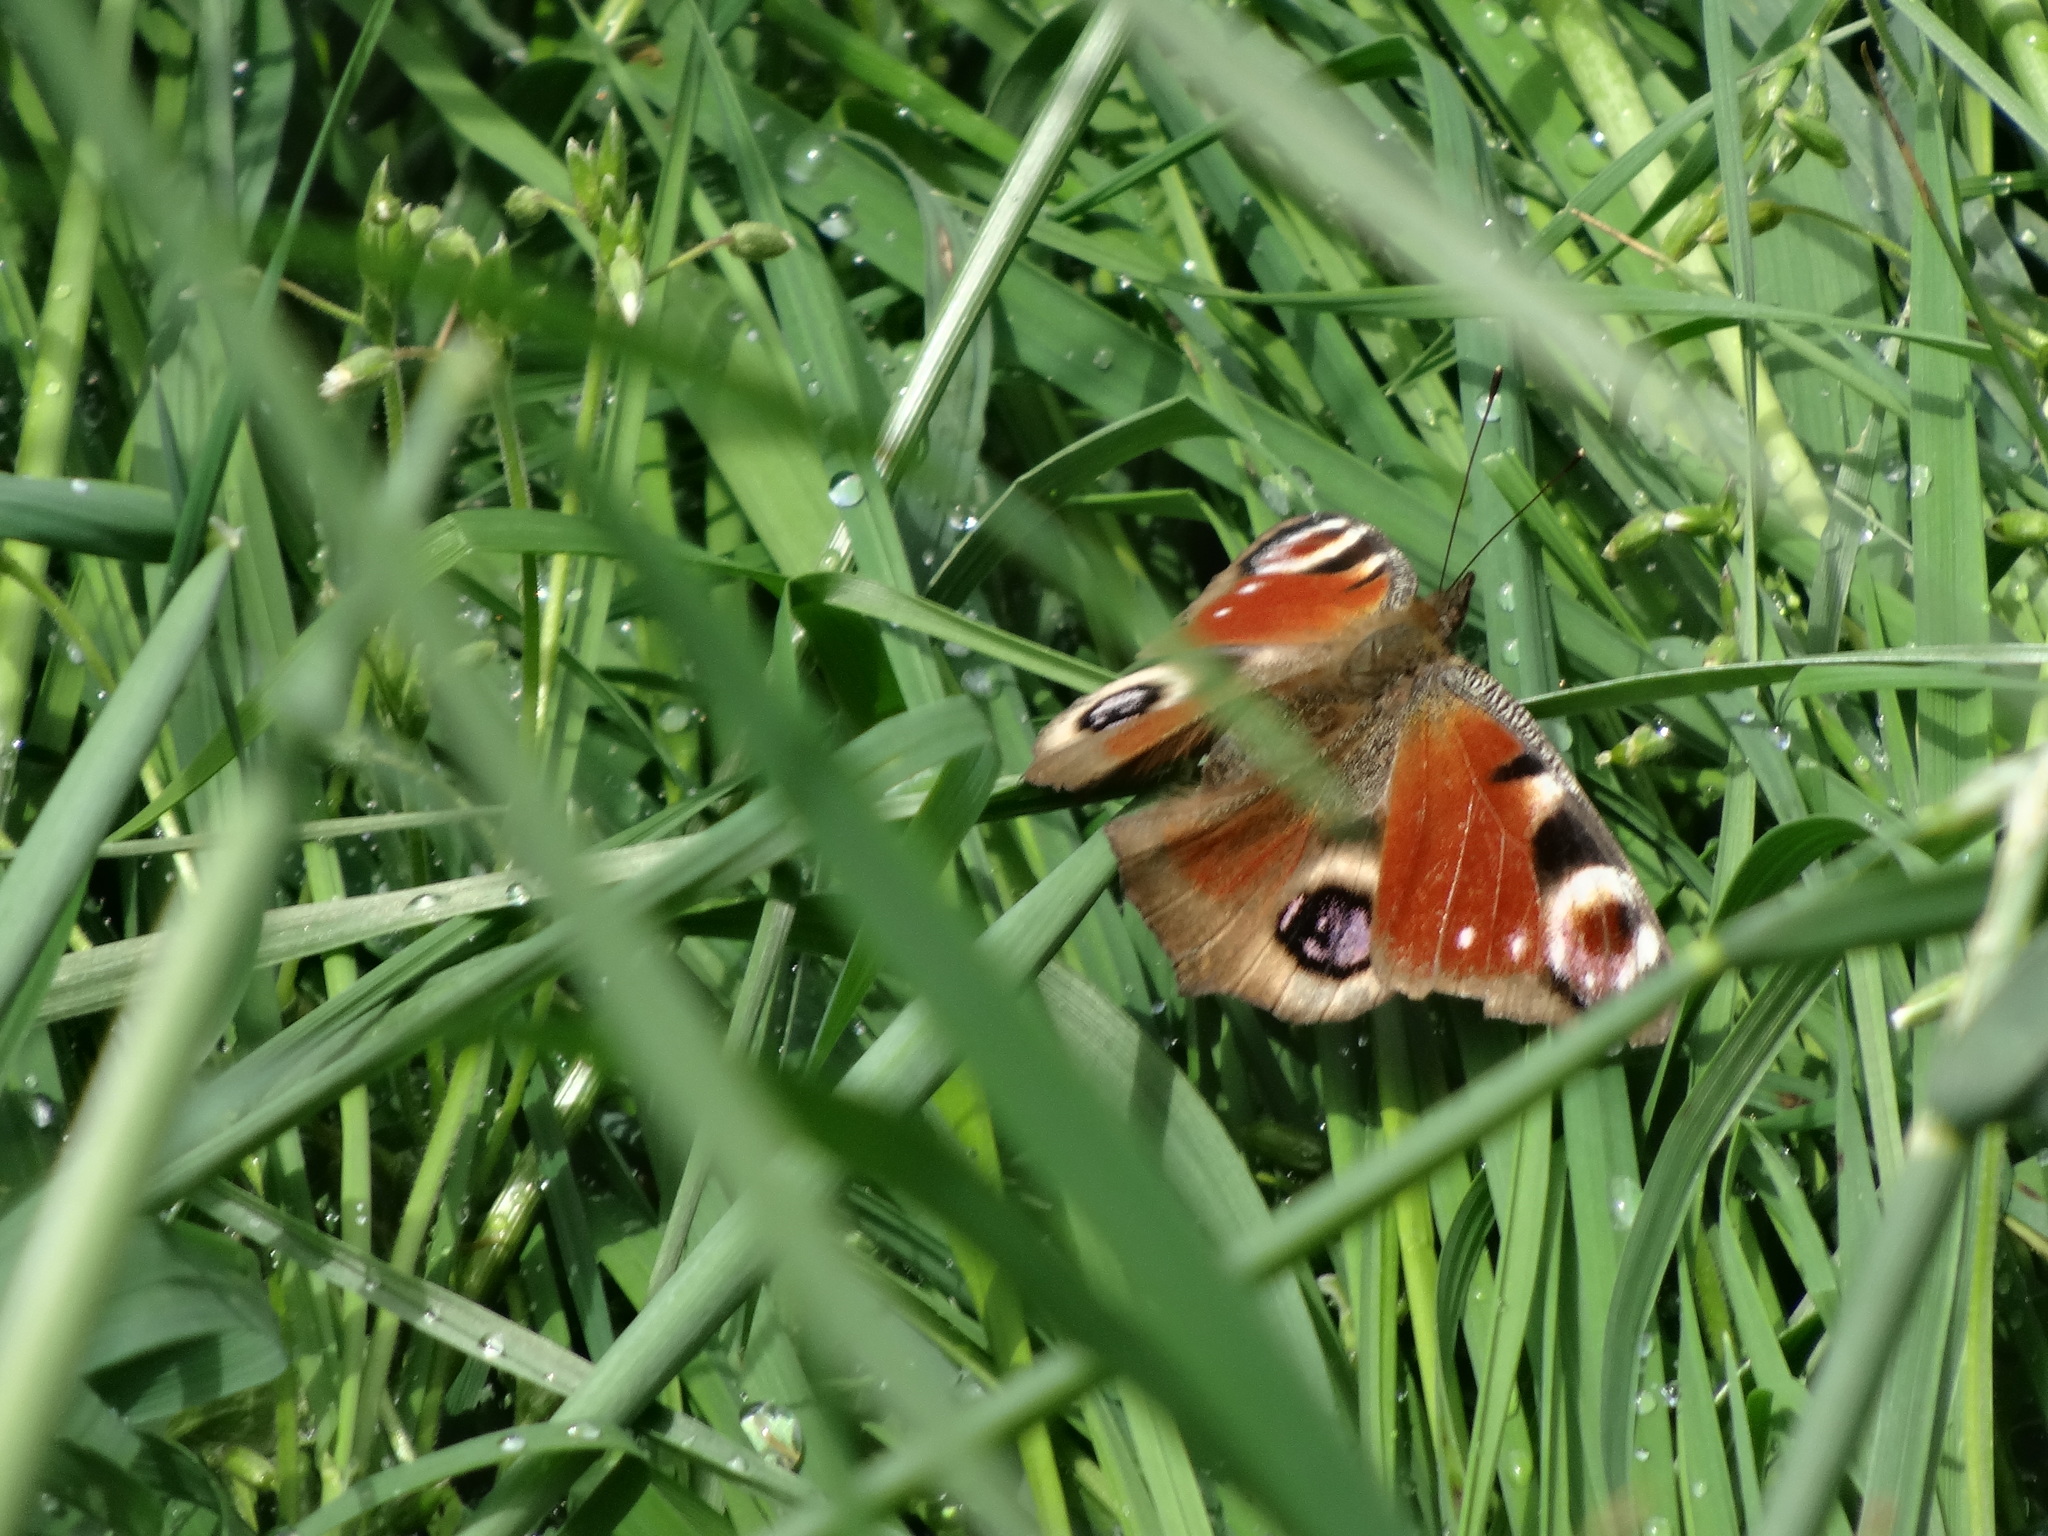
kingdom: Animalia
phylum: Arthropoda
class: Insecta
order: Lepidoptera
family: Nymphalidae
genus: Aglais
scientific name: Aglais io
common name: Peacock
